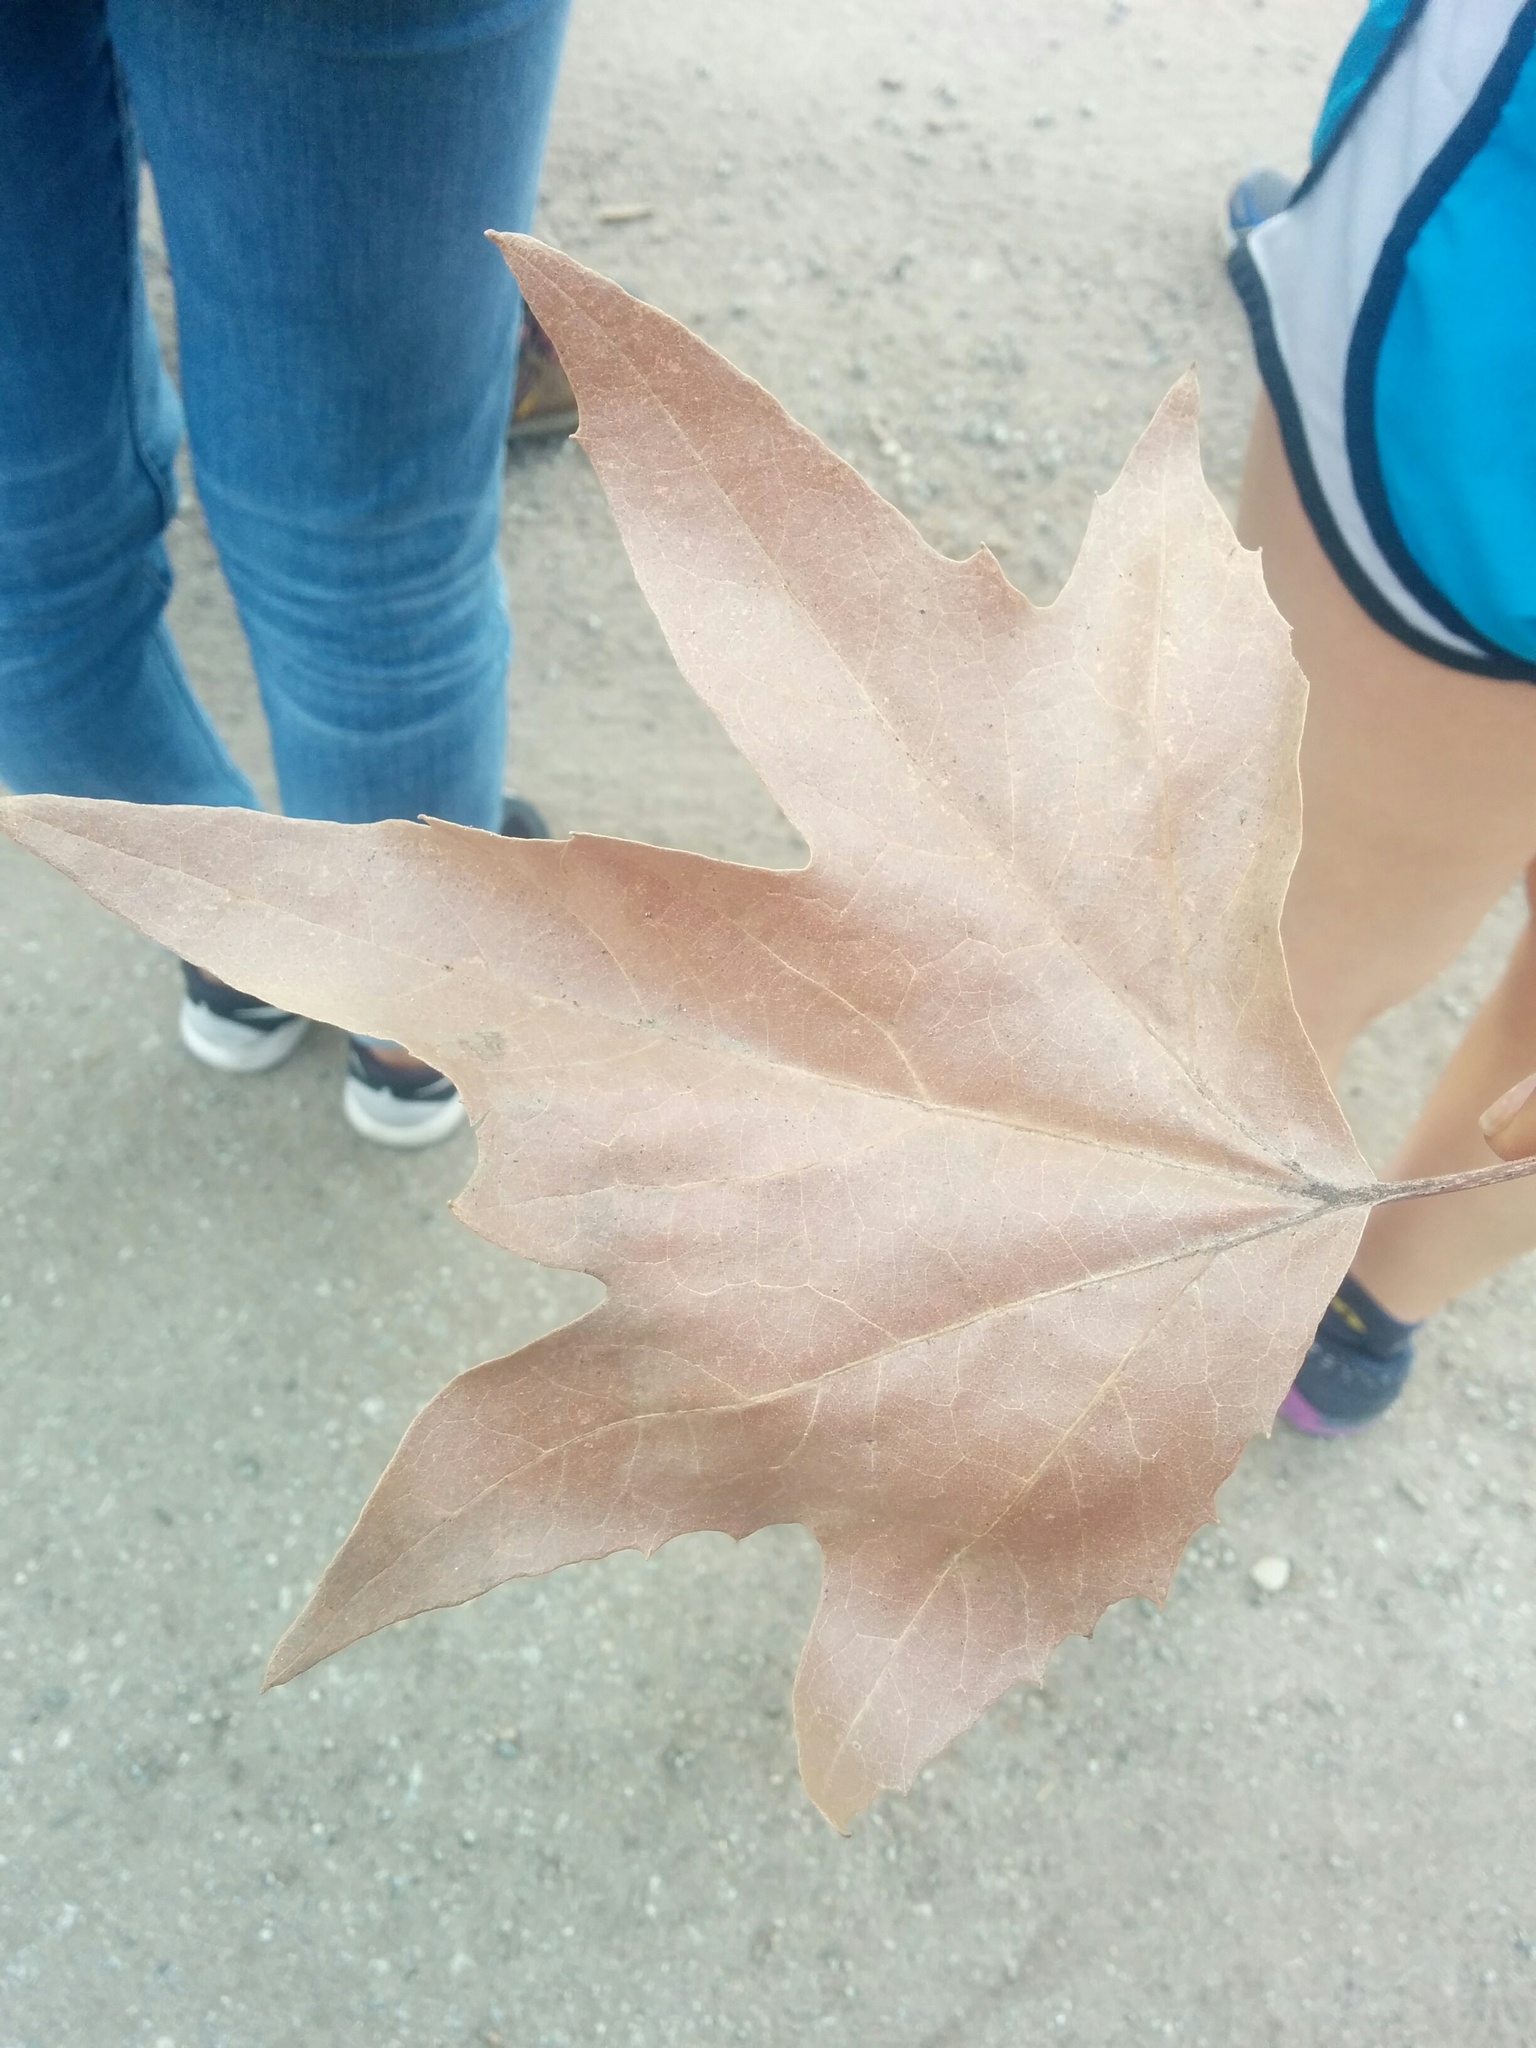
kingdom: Plantae
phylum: Tracheophyta
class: Magnoliopsida
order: Proteales
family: Platanaceae
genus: Platanus
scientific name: Platanus racemosa
